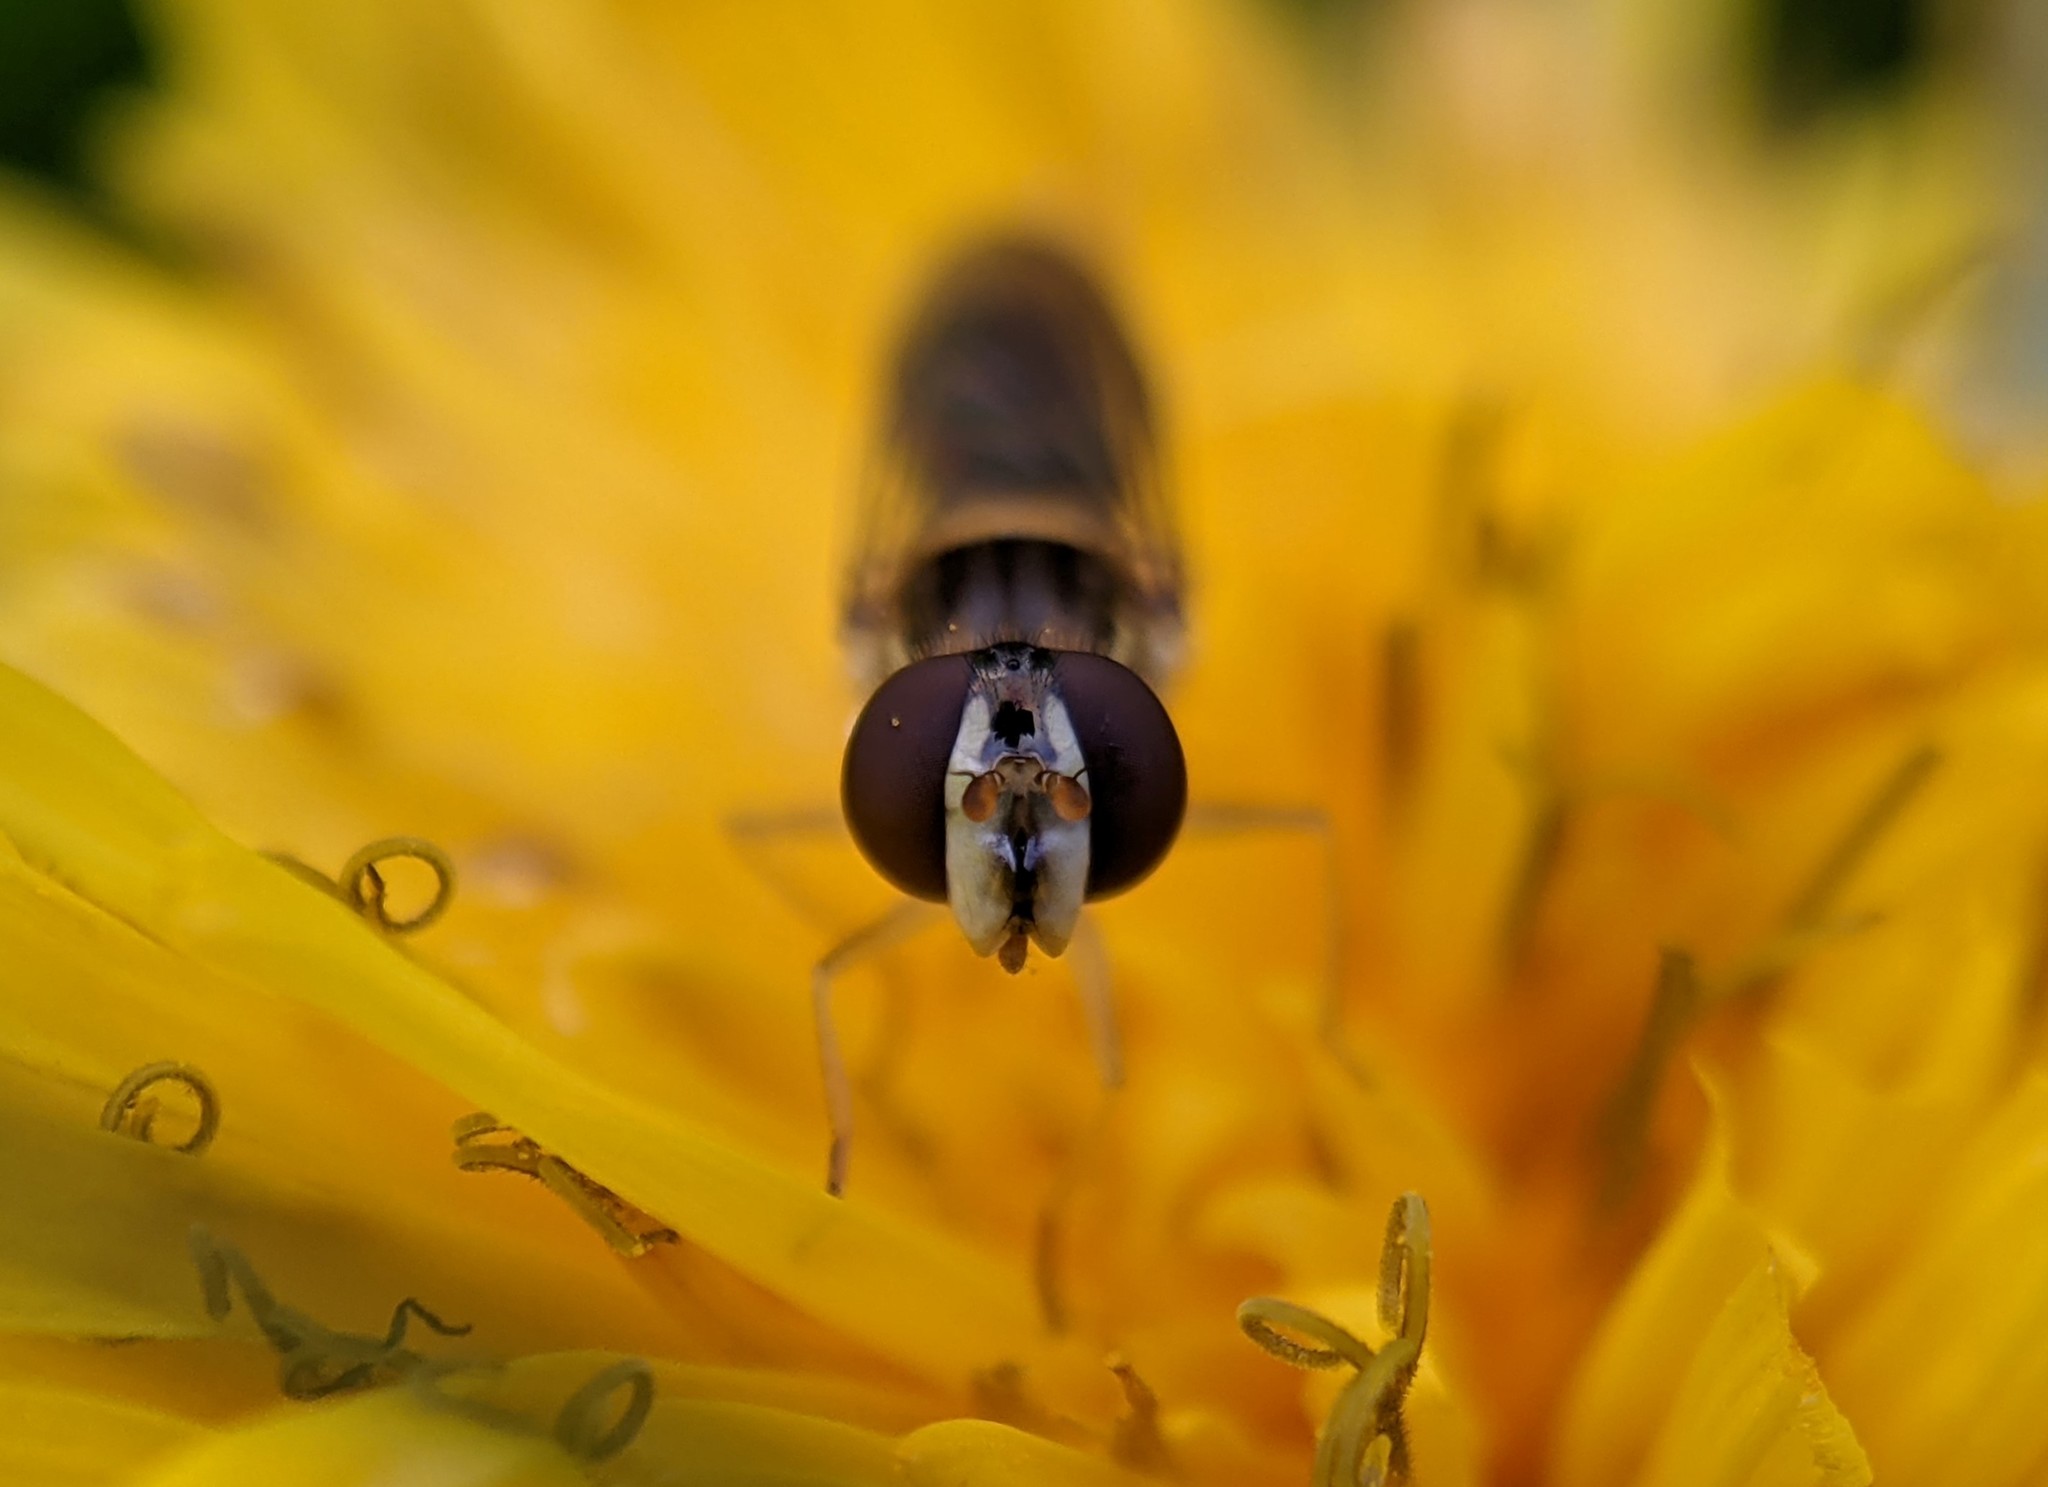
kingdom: Animalia
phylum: Arthropoda
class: Insecta
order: Diptera
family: Syrphidae
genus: Sphaerophoria
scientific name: Sphaerophoria
